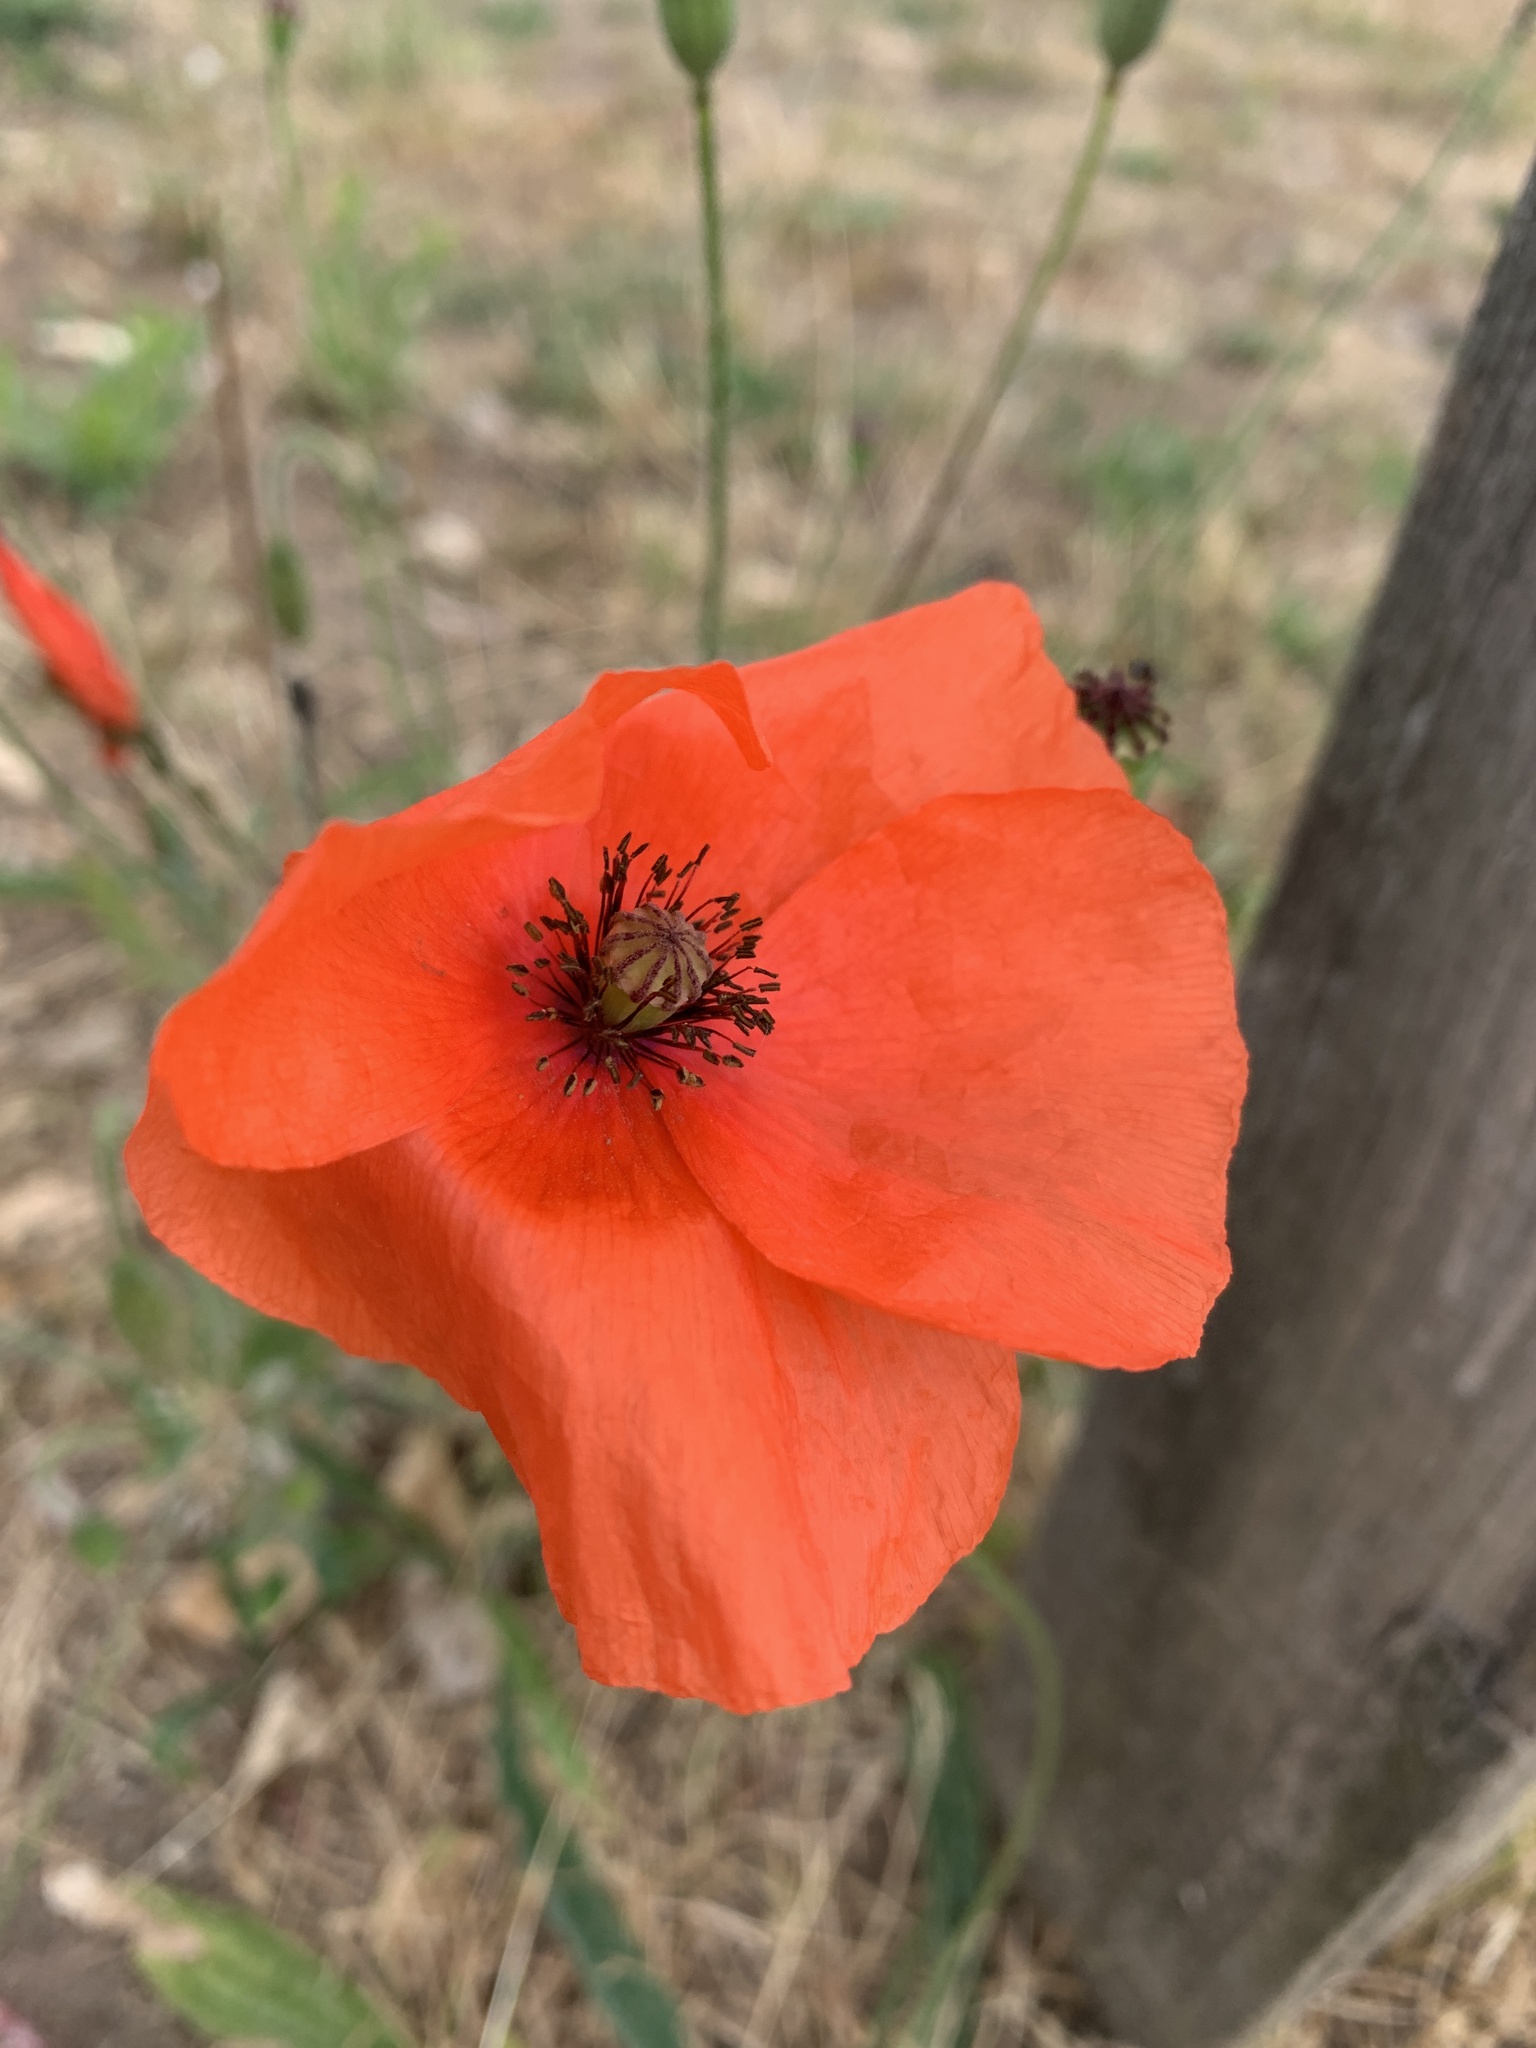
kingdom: Plantae
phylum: Tracheophyta
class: Magnoliopsida
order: Ranunculales
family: Papaveraceae
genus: Papaver
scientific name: Papaver rhoeas
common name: Corn poppy
